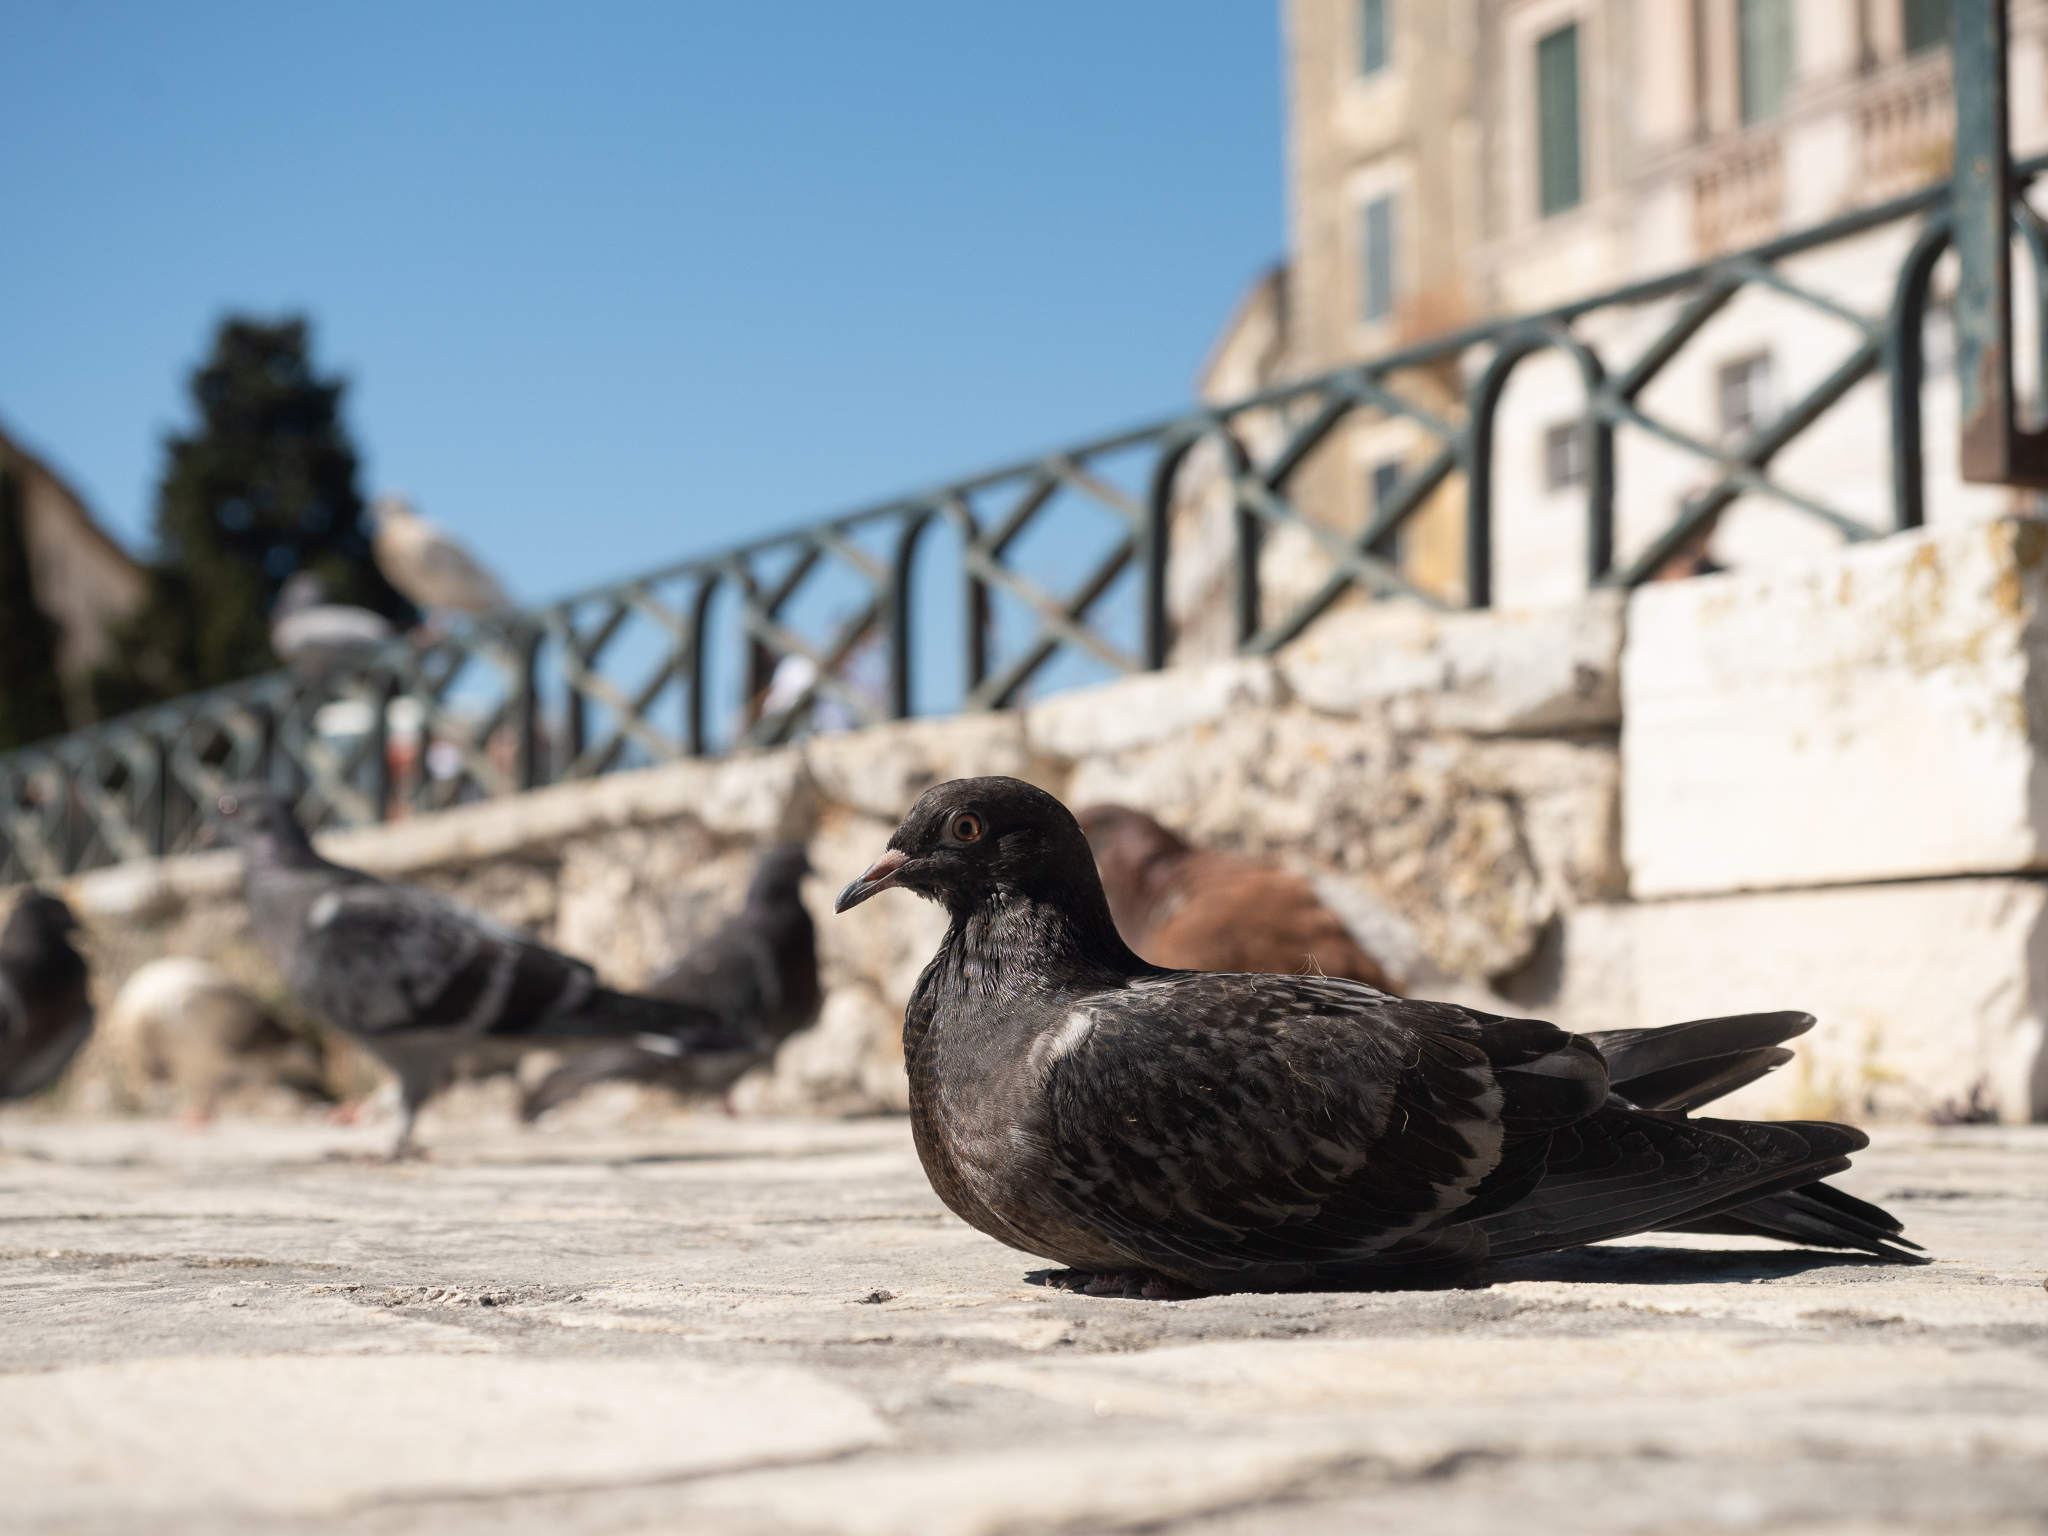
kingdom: Animalia
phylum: Chordata
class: Aves
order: Columbiformes
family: Columbidae
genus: Columba
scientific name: Columba livia
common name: Rock pigeon
